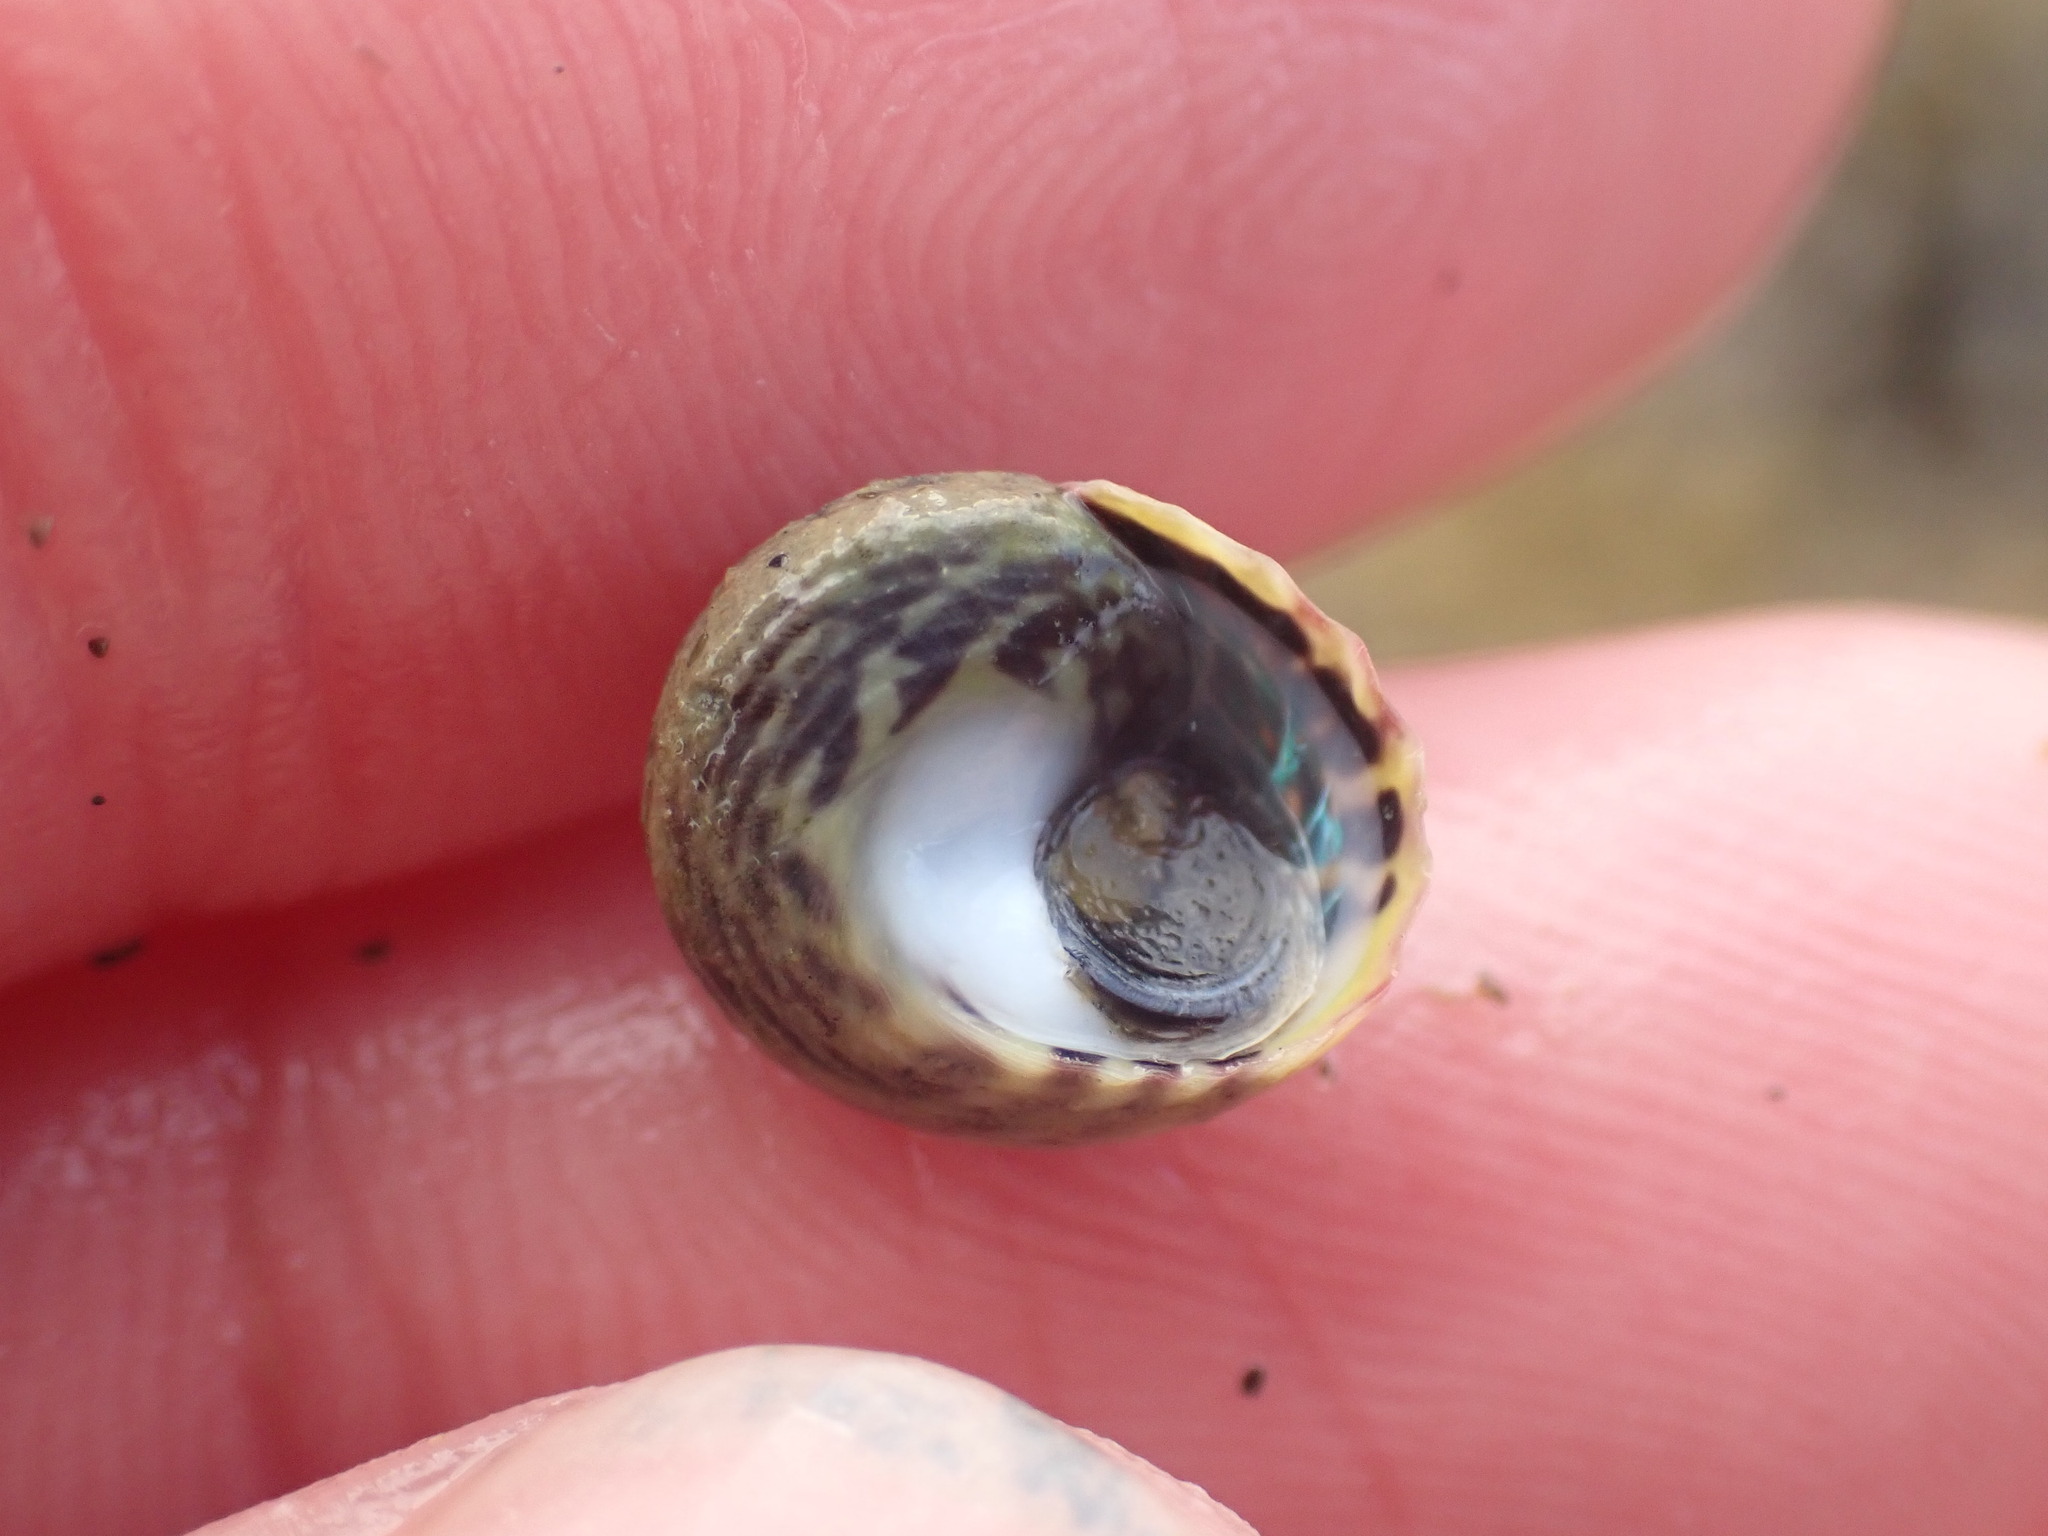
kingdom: Animalia
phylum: Mollusca
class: Gastropoda
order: Trochida
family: Trochidae
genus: Diloma
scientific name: Diloma subrostratum
